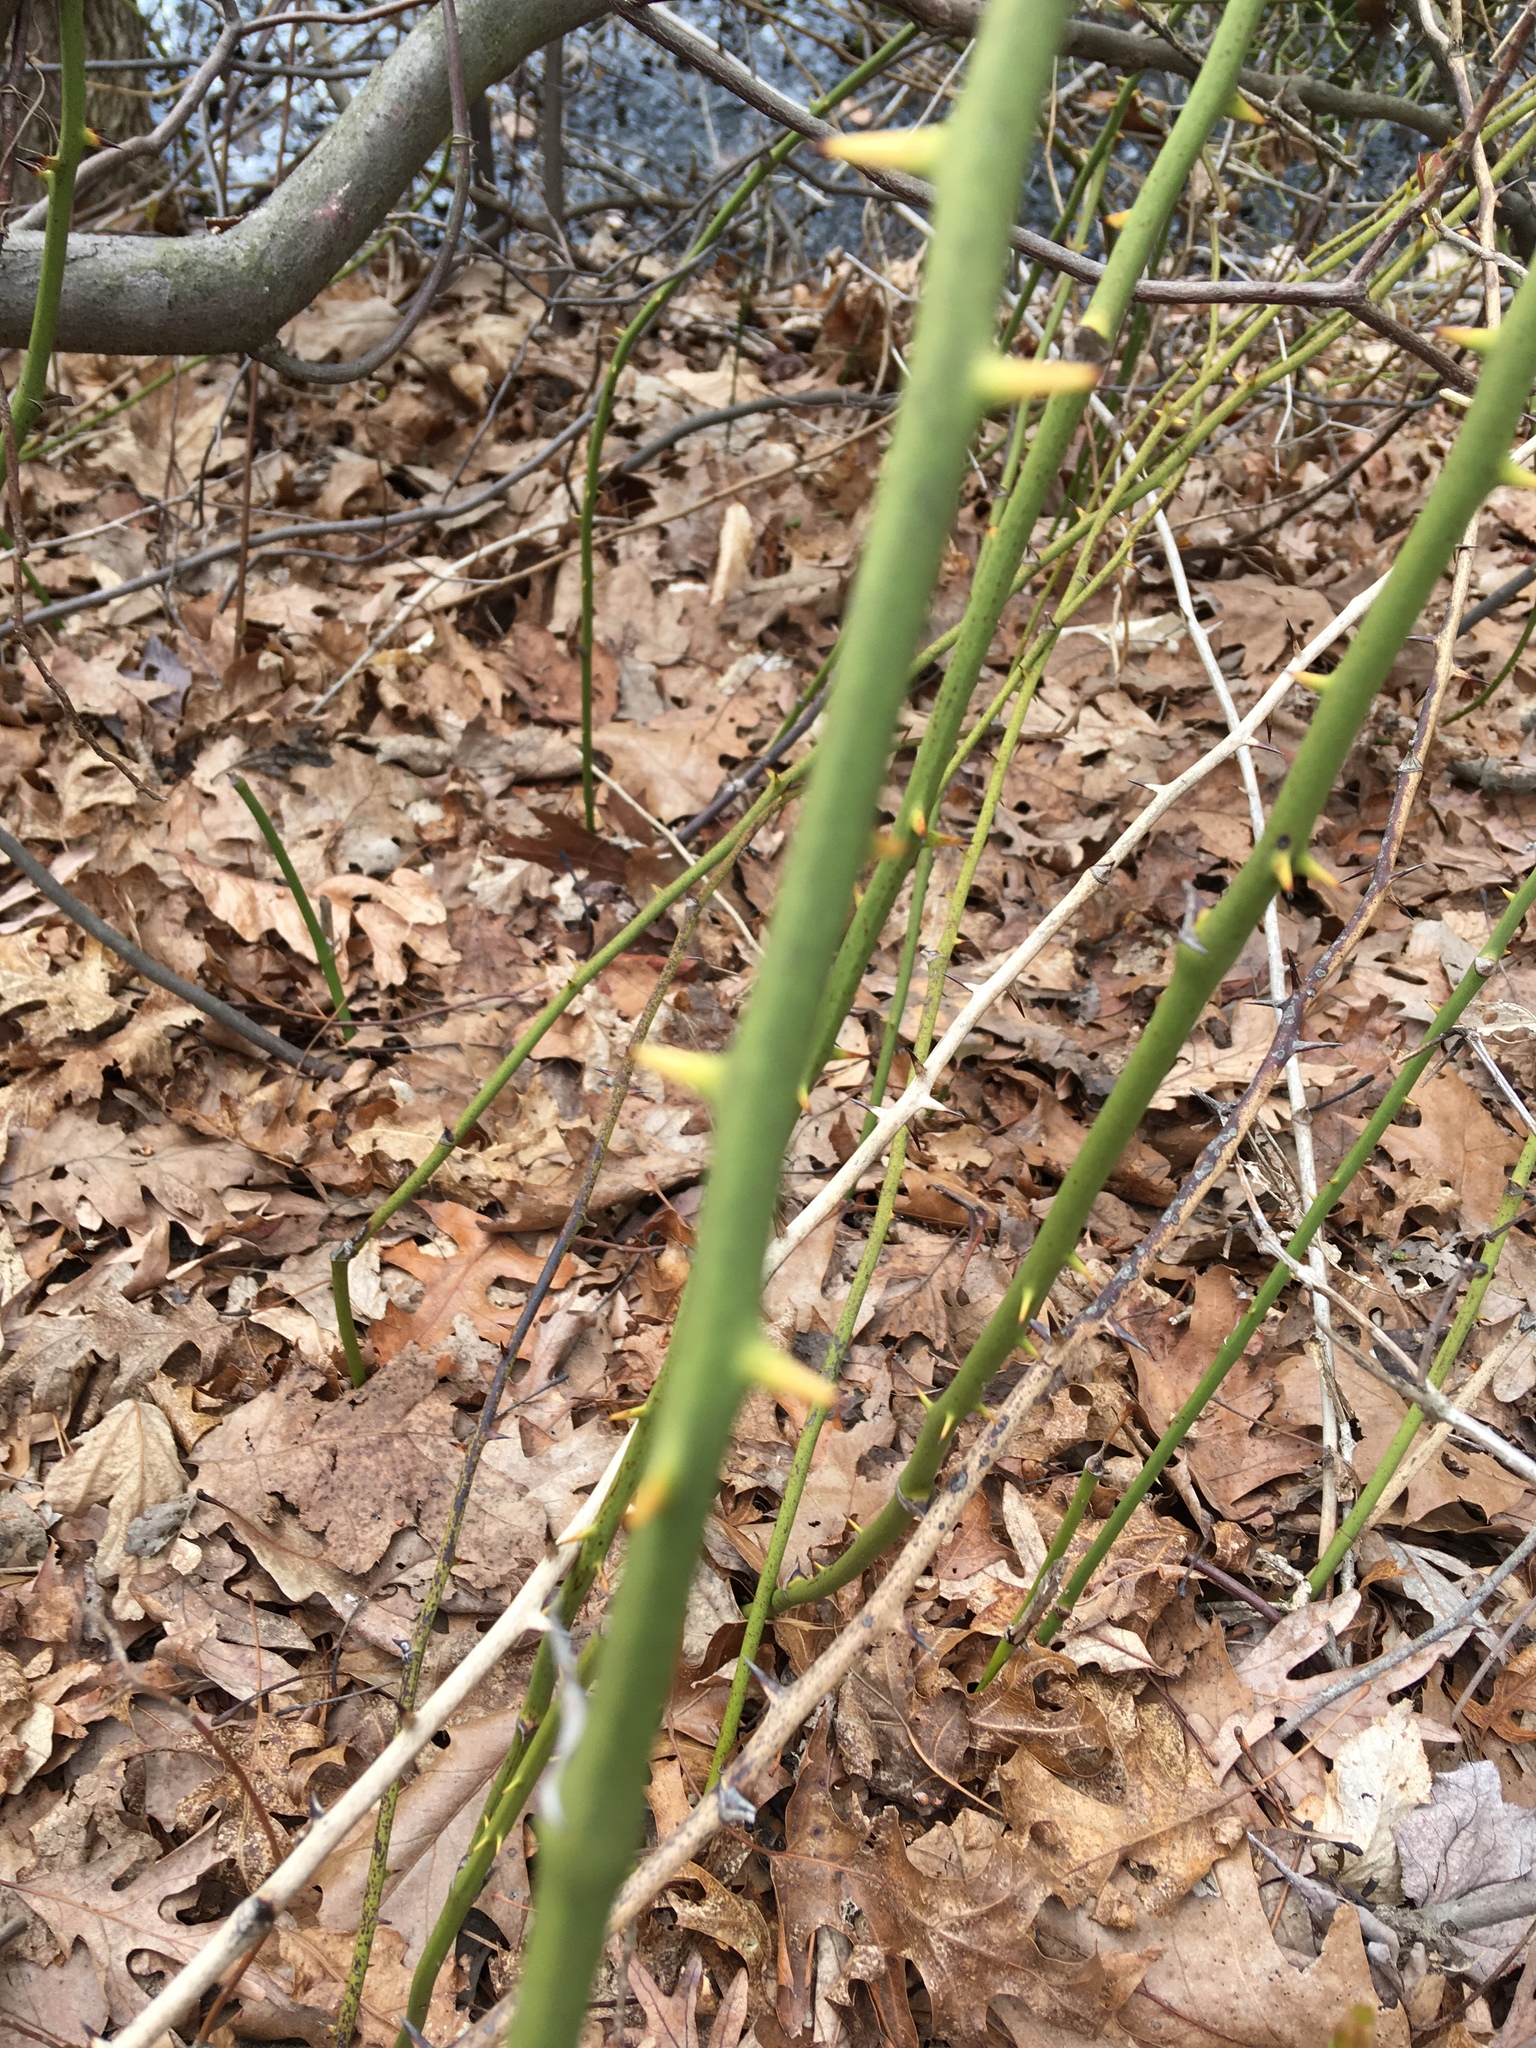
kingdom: Plantae
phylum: Tracheophyta
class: Liliopsida
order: Liliales
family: Smilacaceae
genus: Smilax
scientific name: Smilax rotundifolia
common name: Bullbriar
